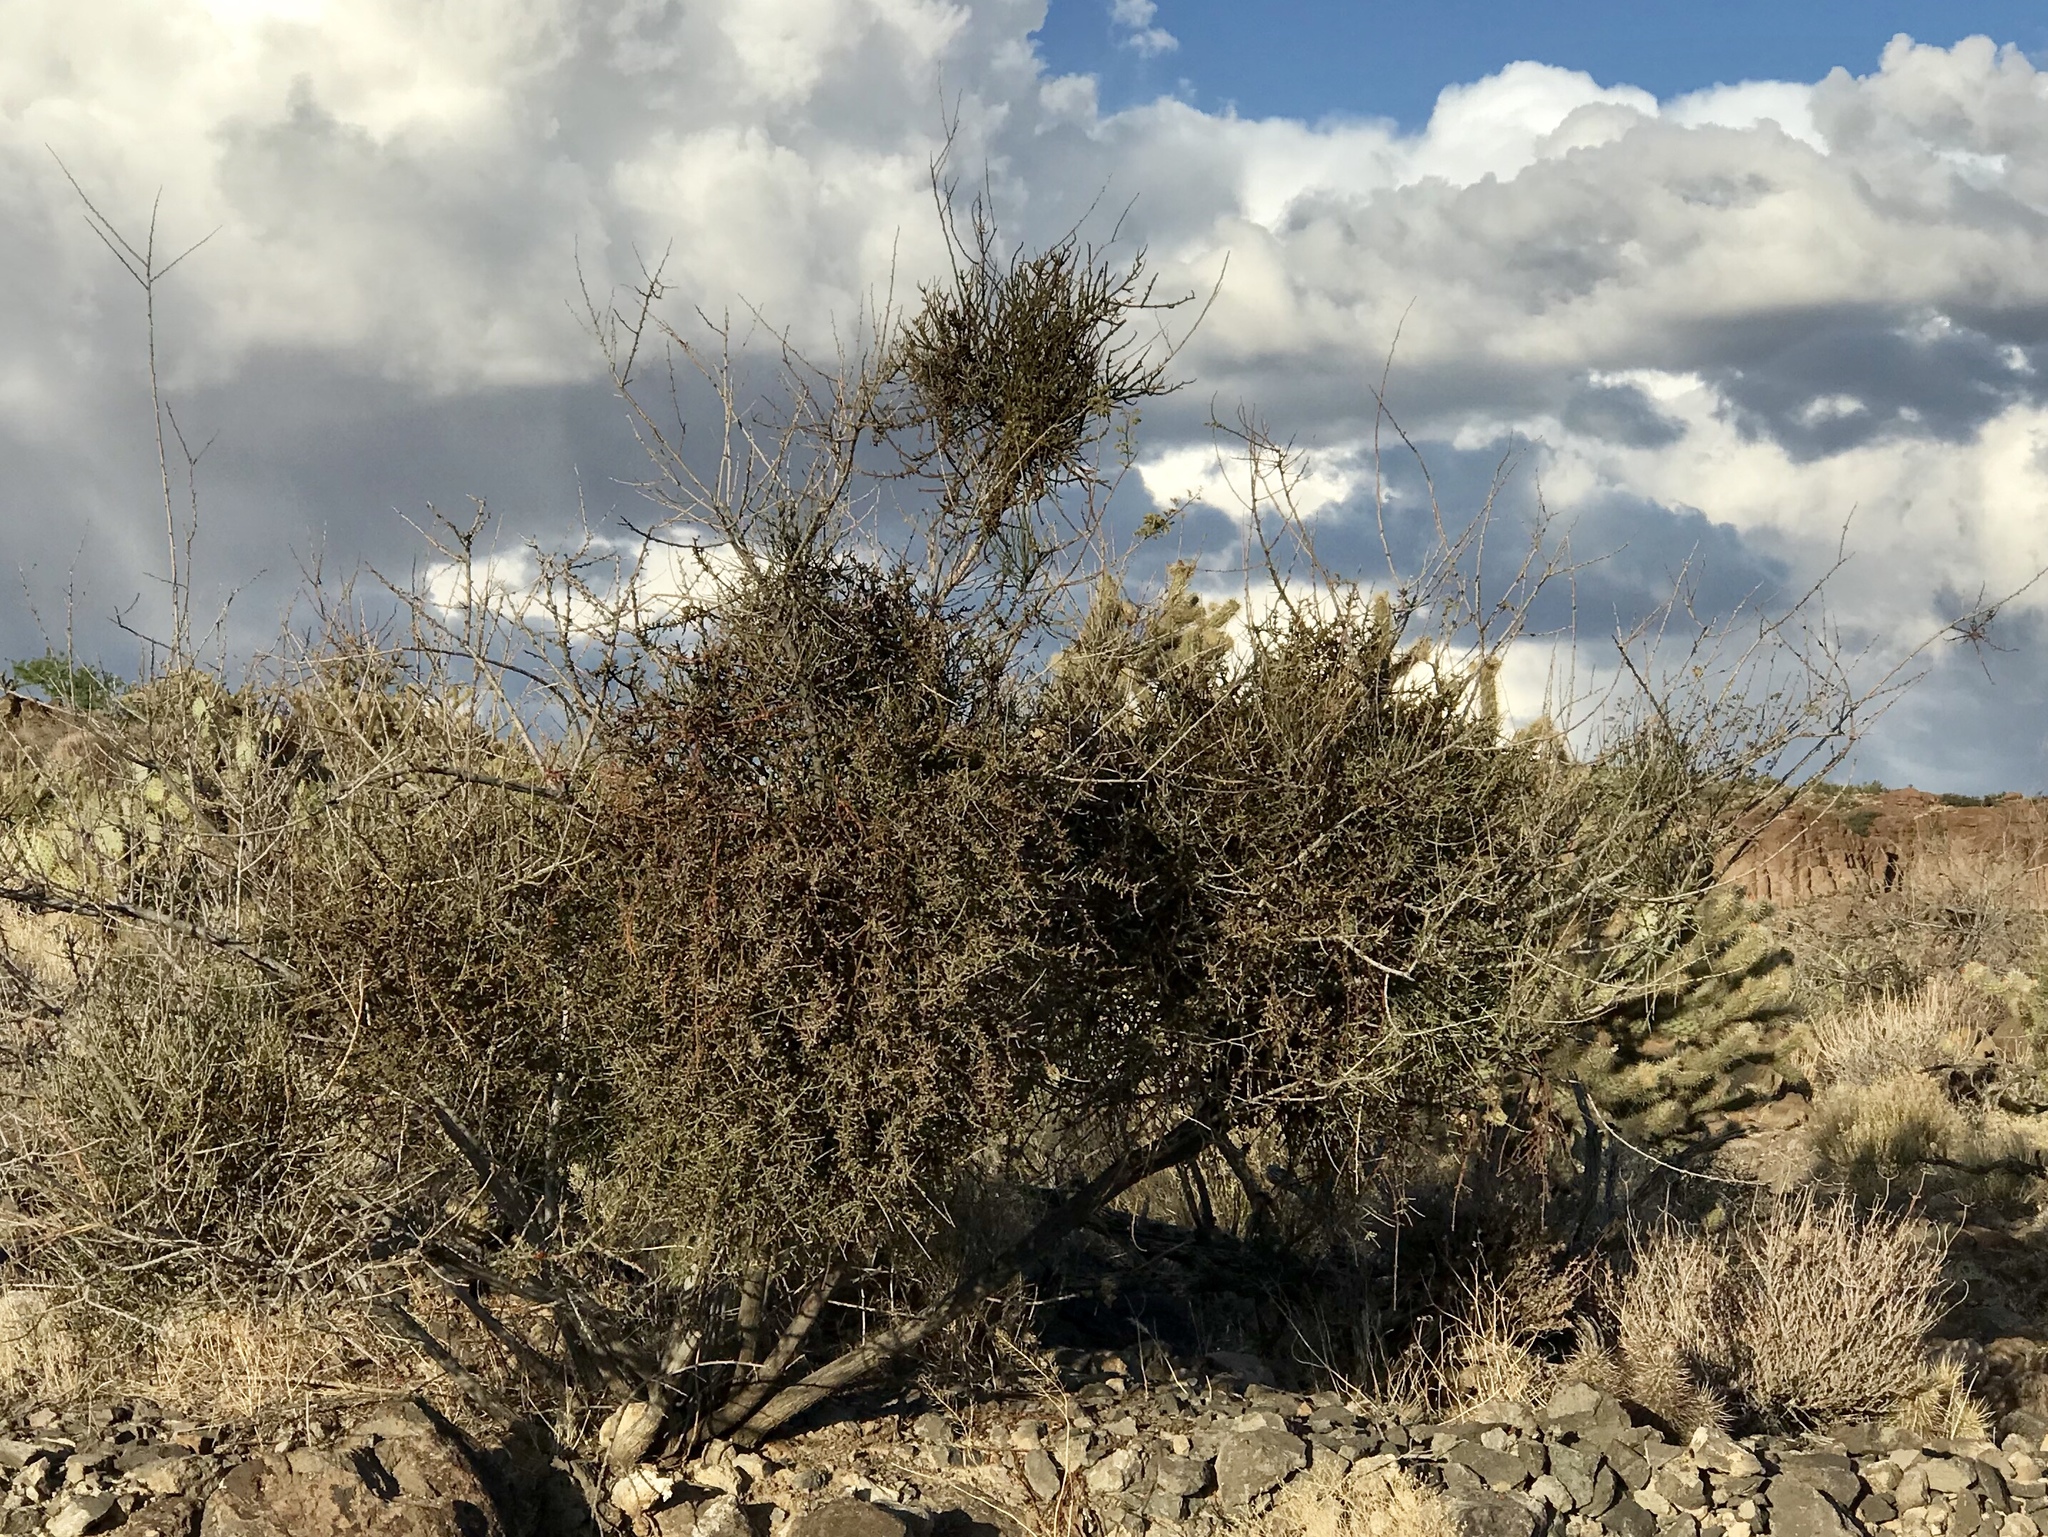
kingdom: Plantae
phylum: Tracheophyta
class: Magnoliopsida
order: Santalales
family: Viscaceae
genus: Phoradendron
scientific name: Phoradendron californicum
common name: Acacia mistletoe
